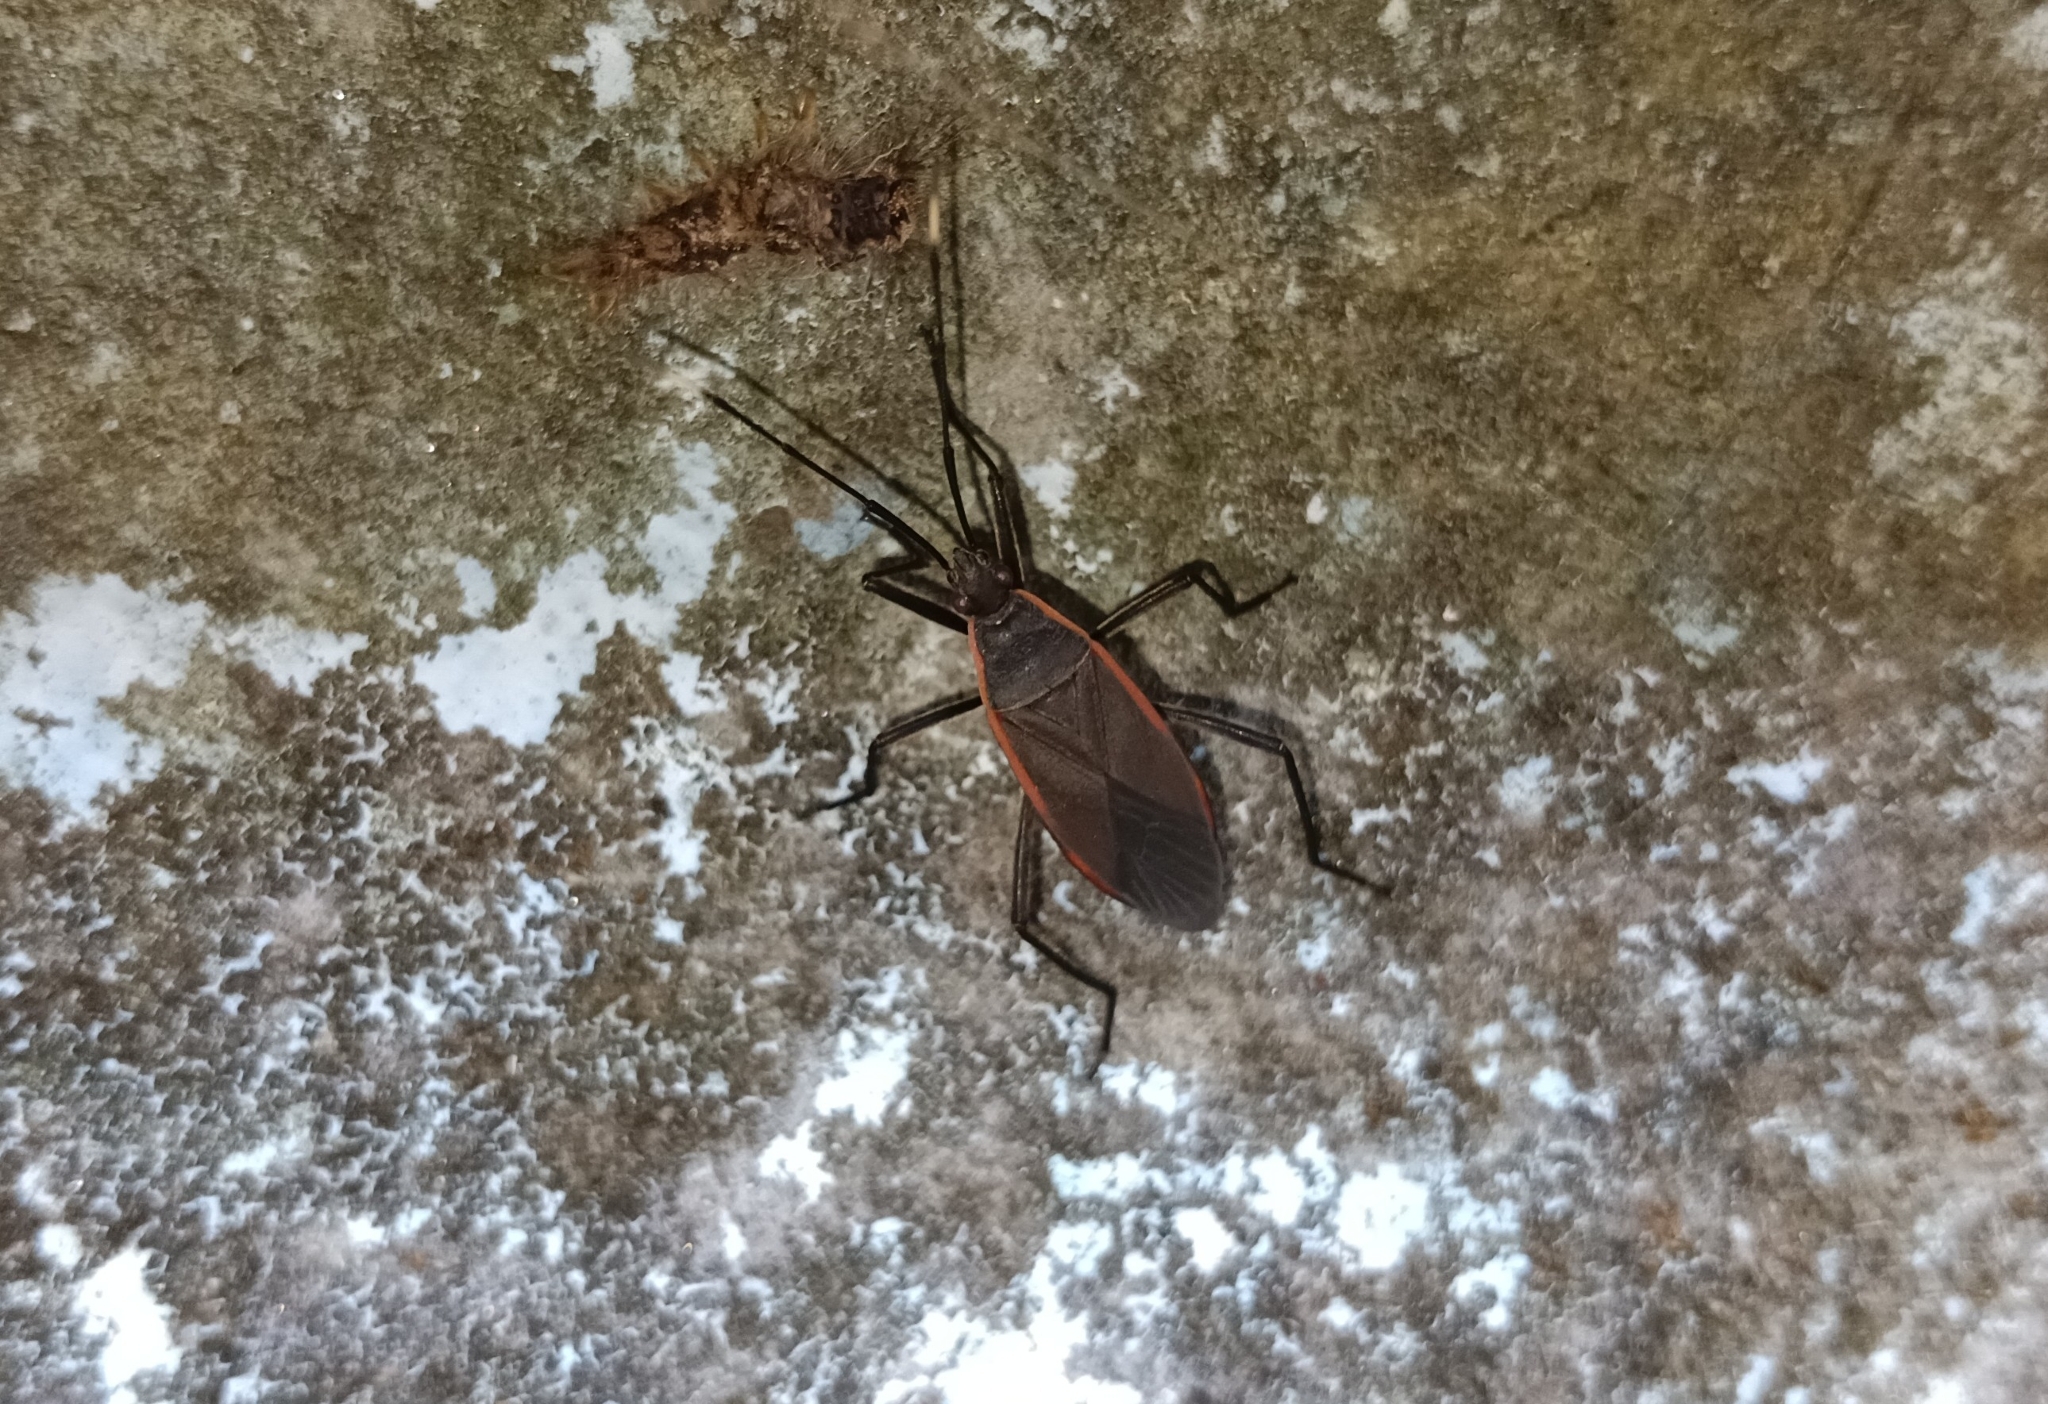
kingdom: Animalia
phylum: Arthropoda
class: Insecta
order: Hemiptera
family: Pyrrhocoridae
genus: Melamphaus
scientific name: Melamphaus
